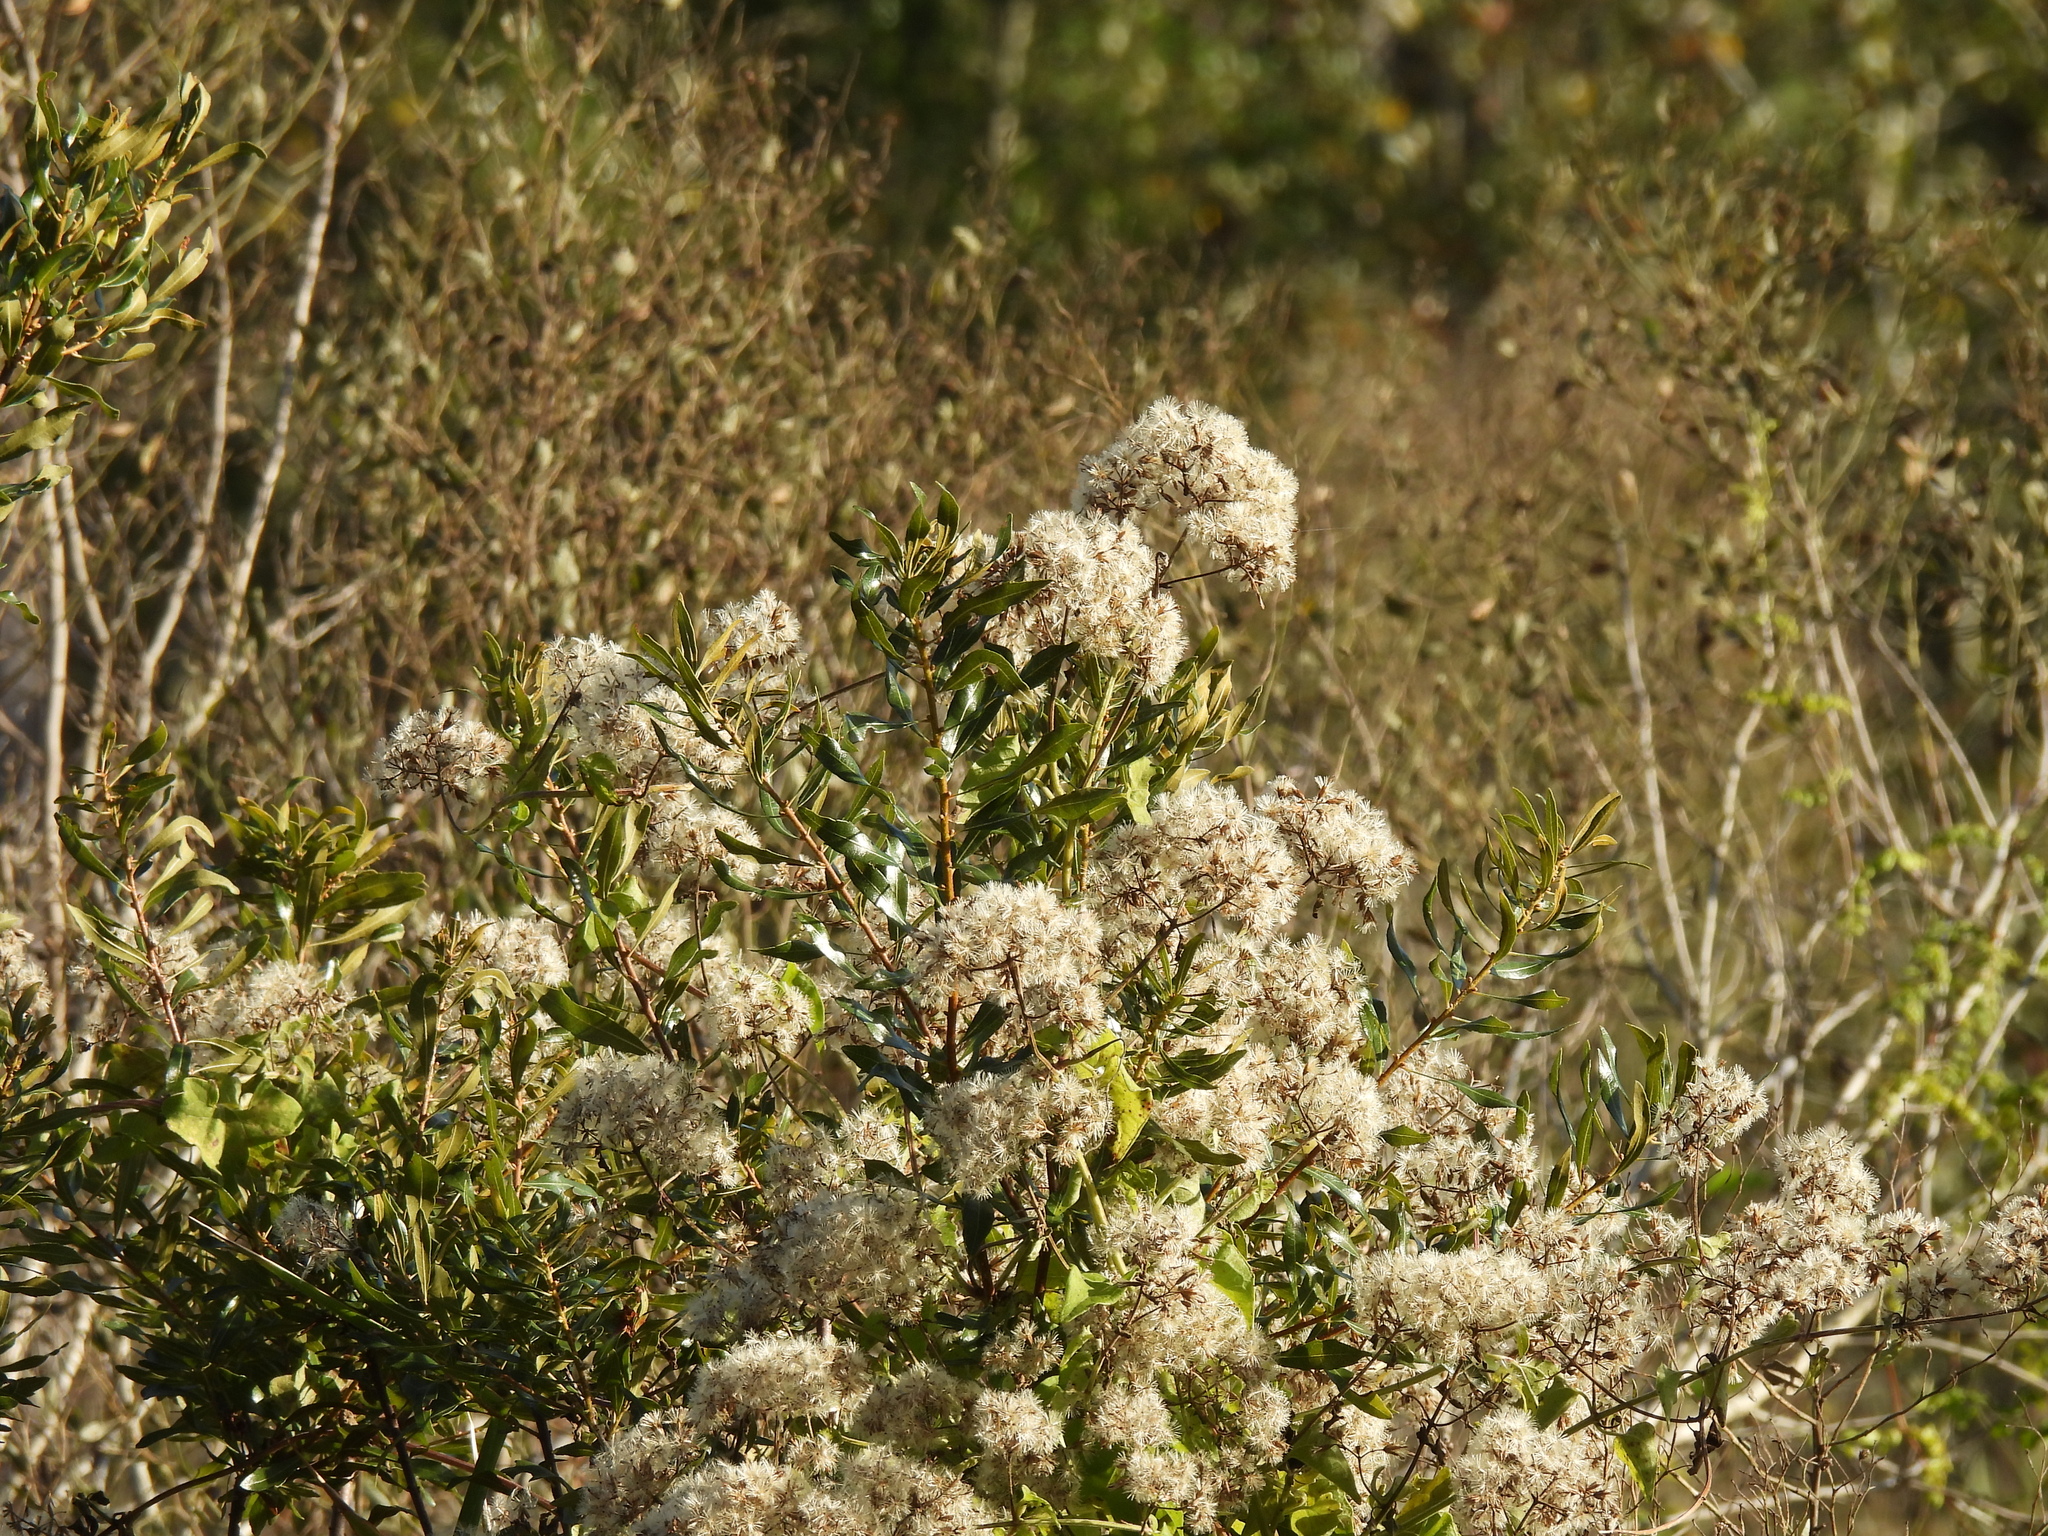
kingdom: Plantae
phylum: Tracheophyta
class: Magnoliopsida
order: Fagales
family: Myricaceae
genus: Morella
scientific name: Morella cerifera
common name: Wax myrtle
